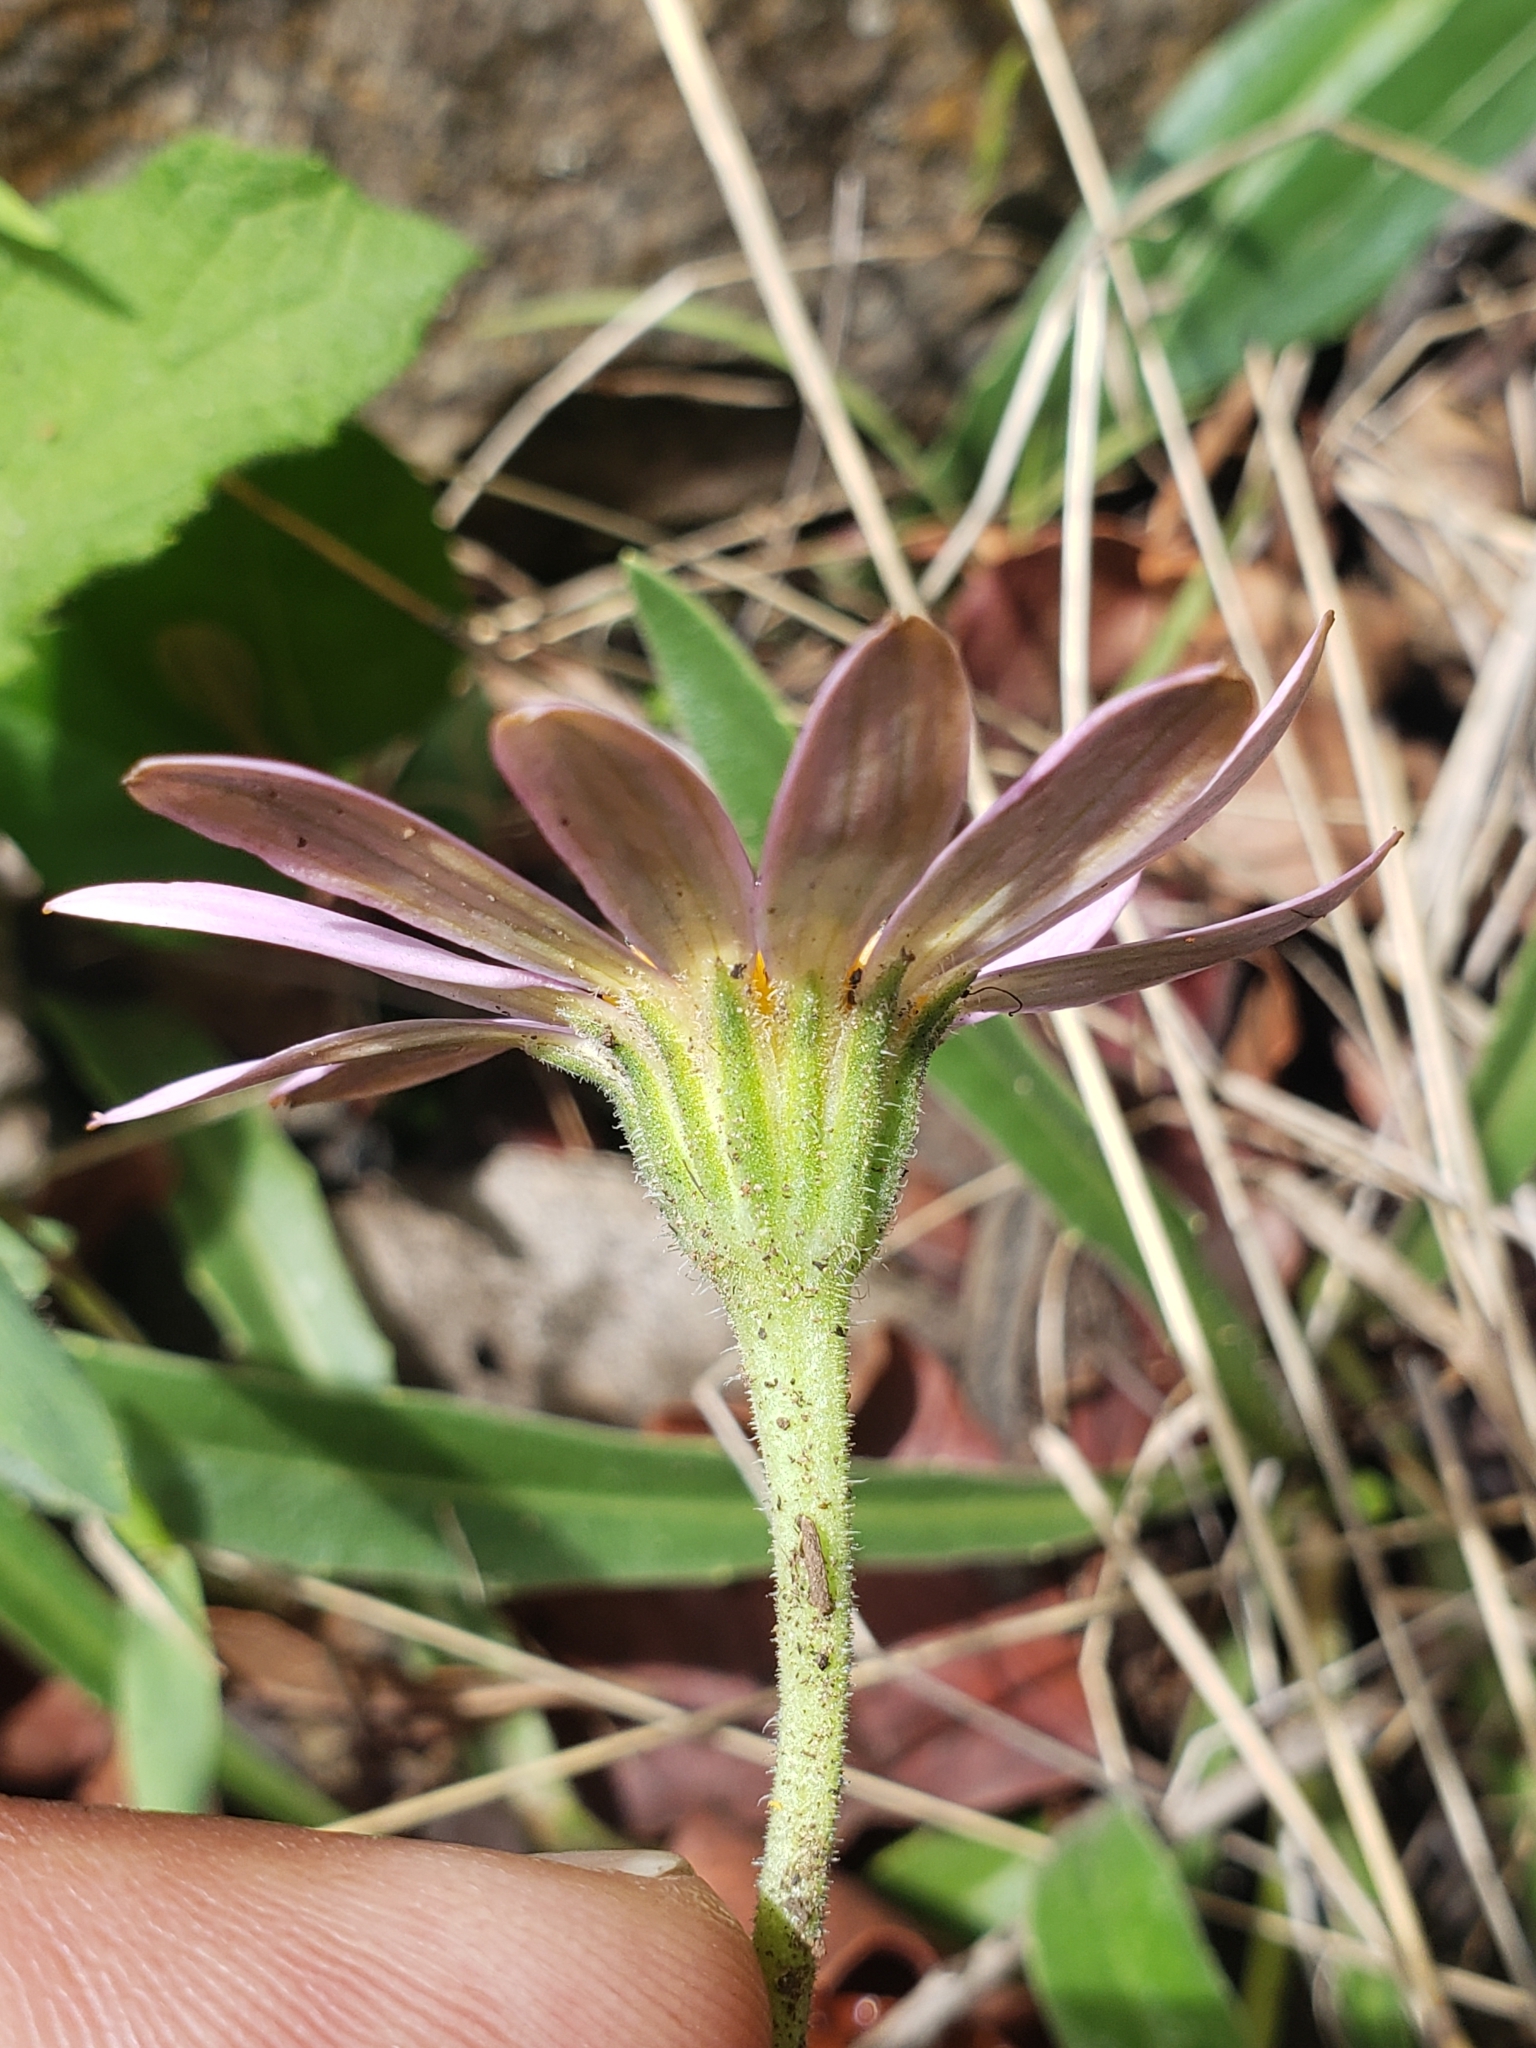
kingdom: Plantae
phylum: Tracheophyta
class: Magnoliopsida
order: Asterales
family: Asteraceae
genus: Dimorphotheca
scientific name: Dimorphotheca jucunda
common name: Osteospermum
